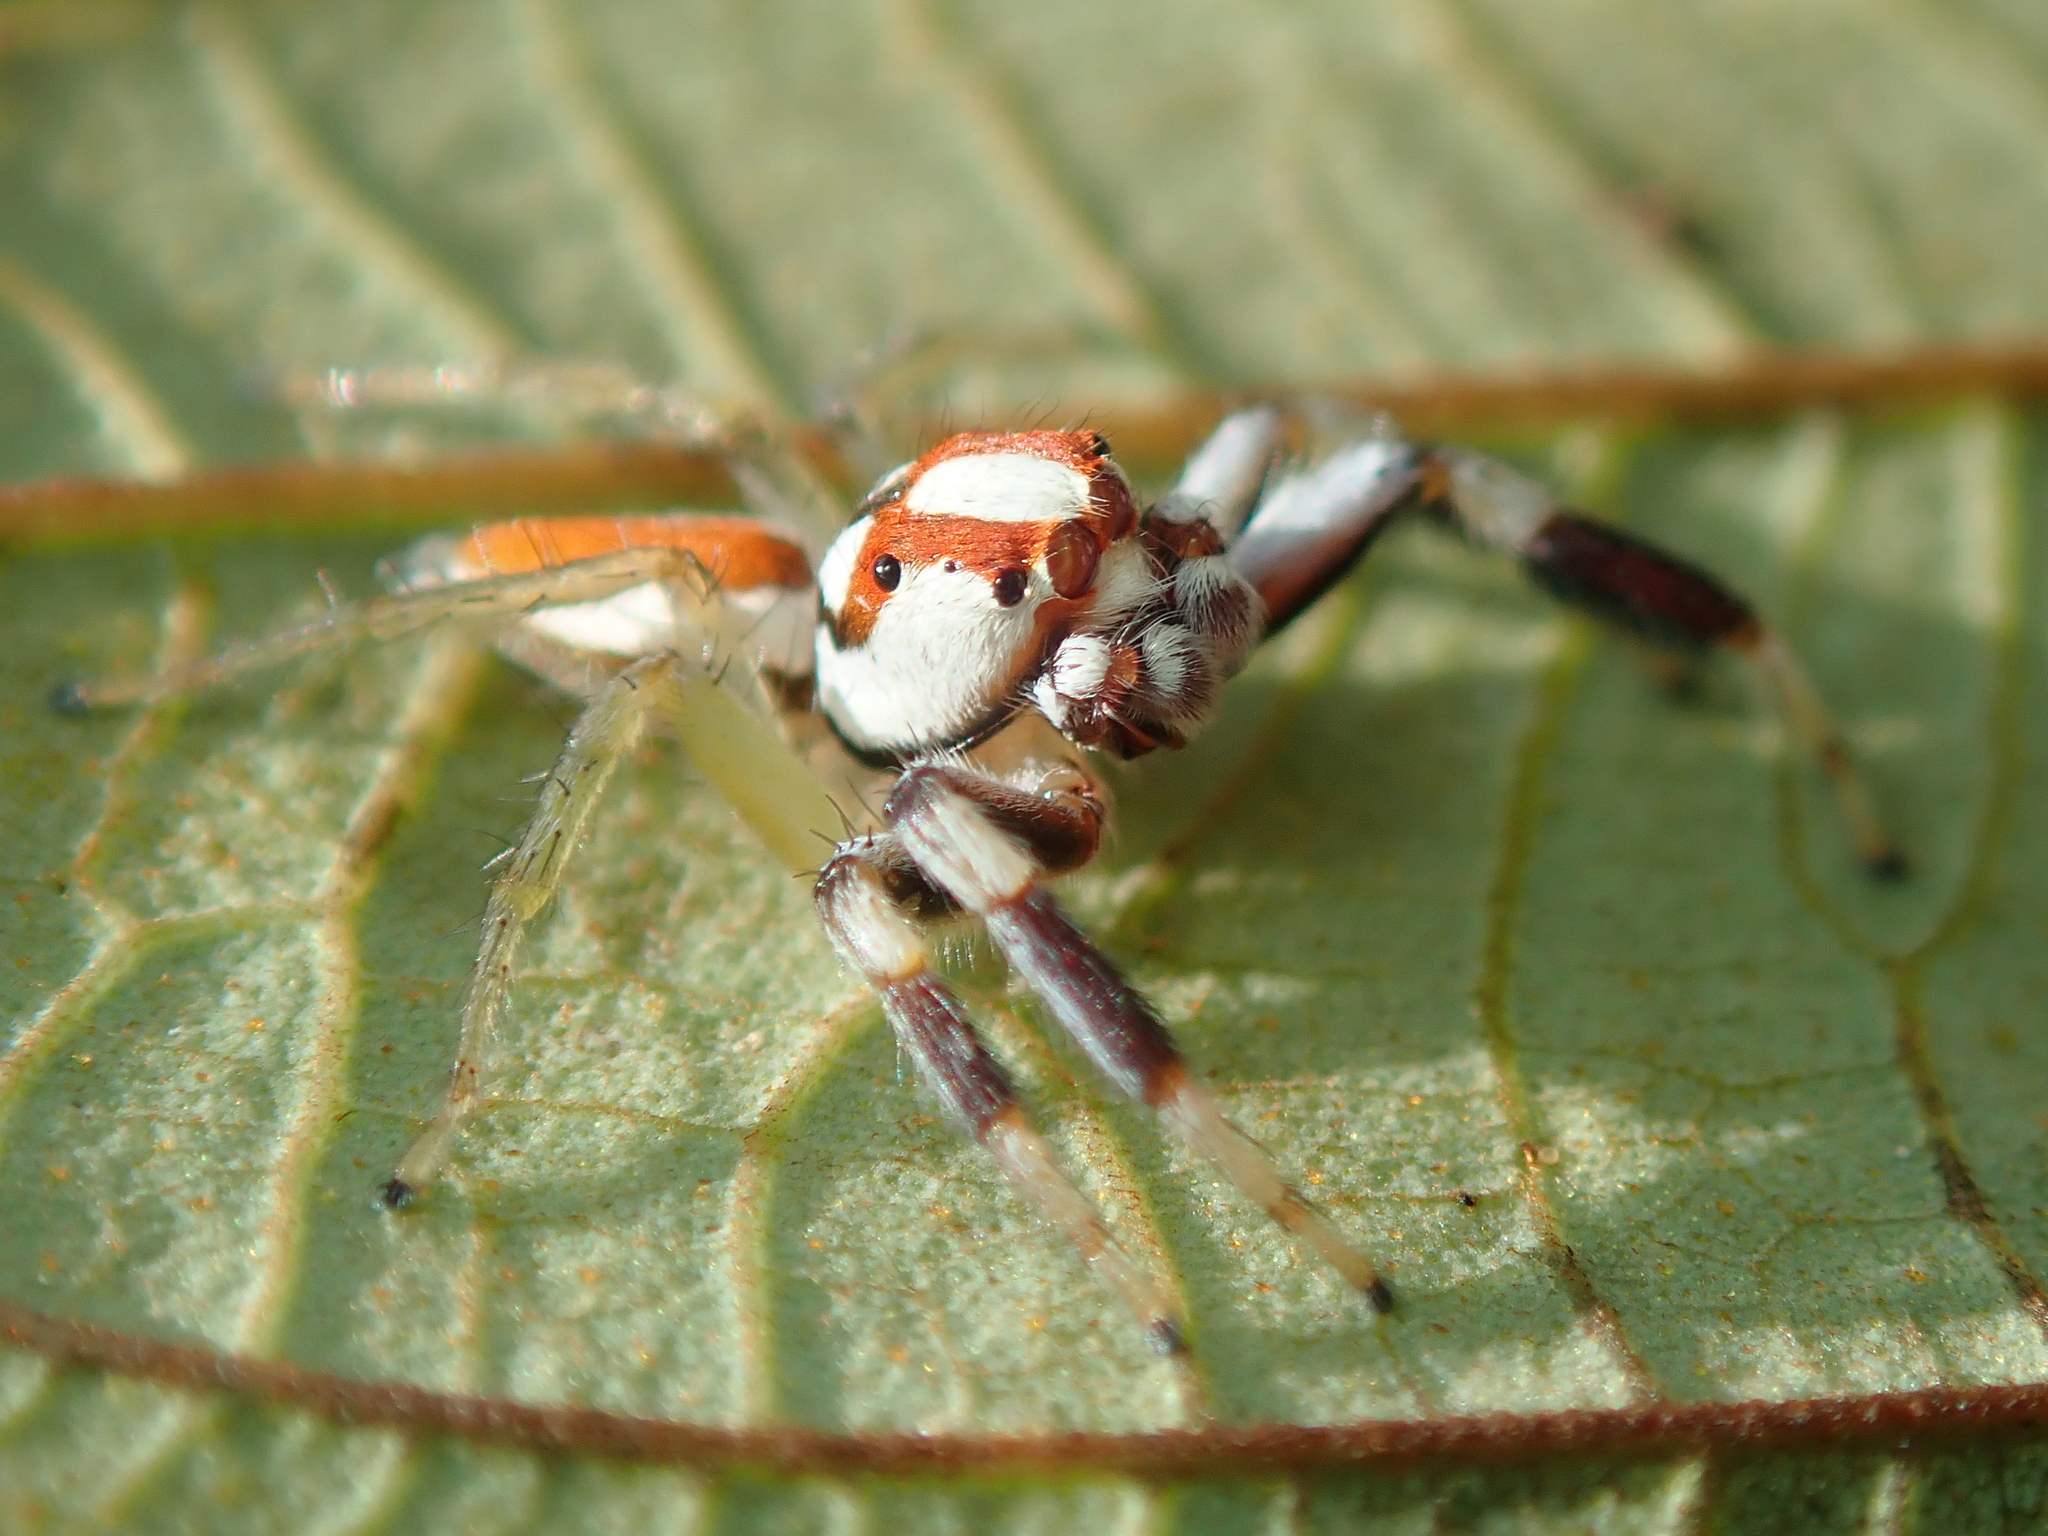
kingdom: Animalia
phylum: Arthropoda
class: Arachnida
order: Araneae
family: Salticidae
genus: Chira
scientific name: Chira guianensis
